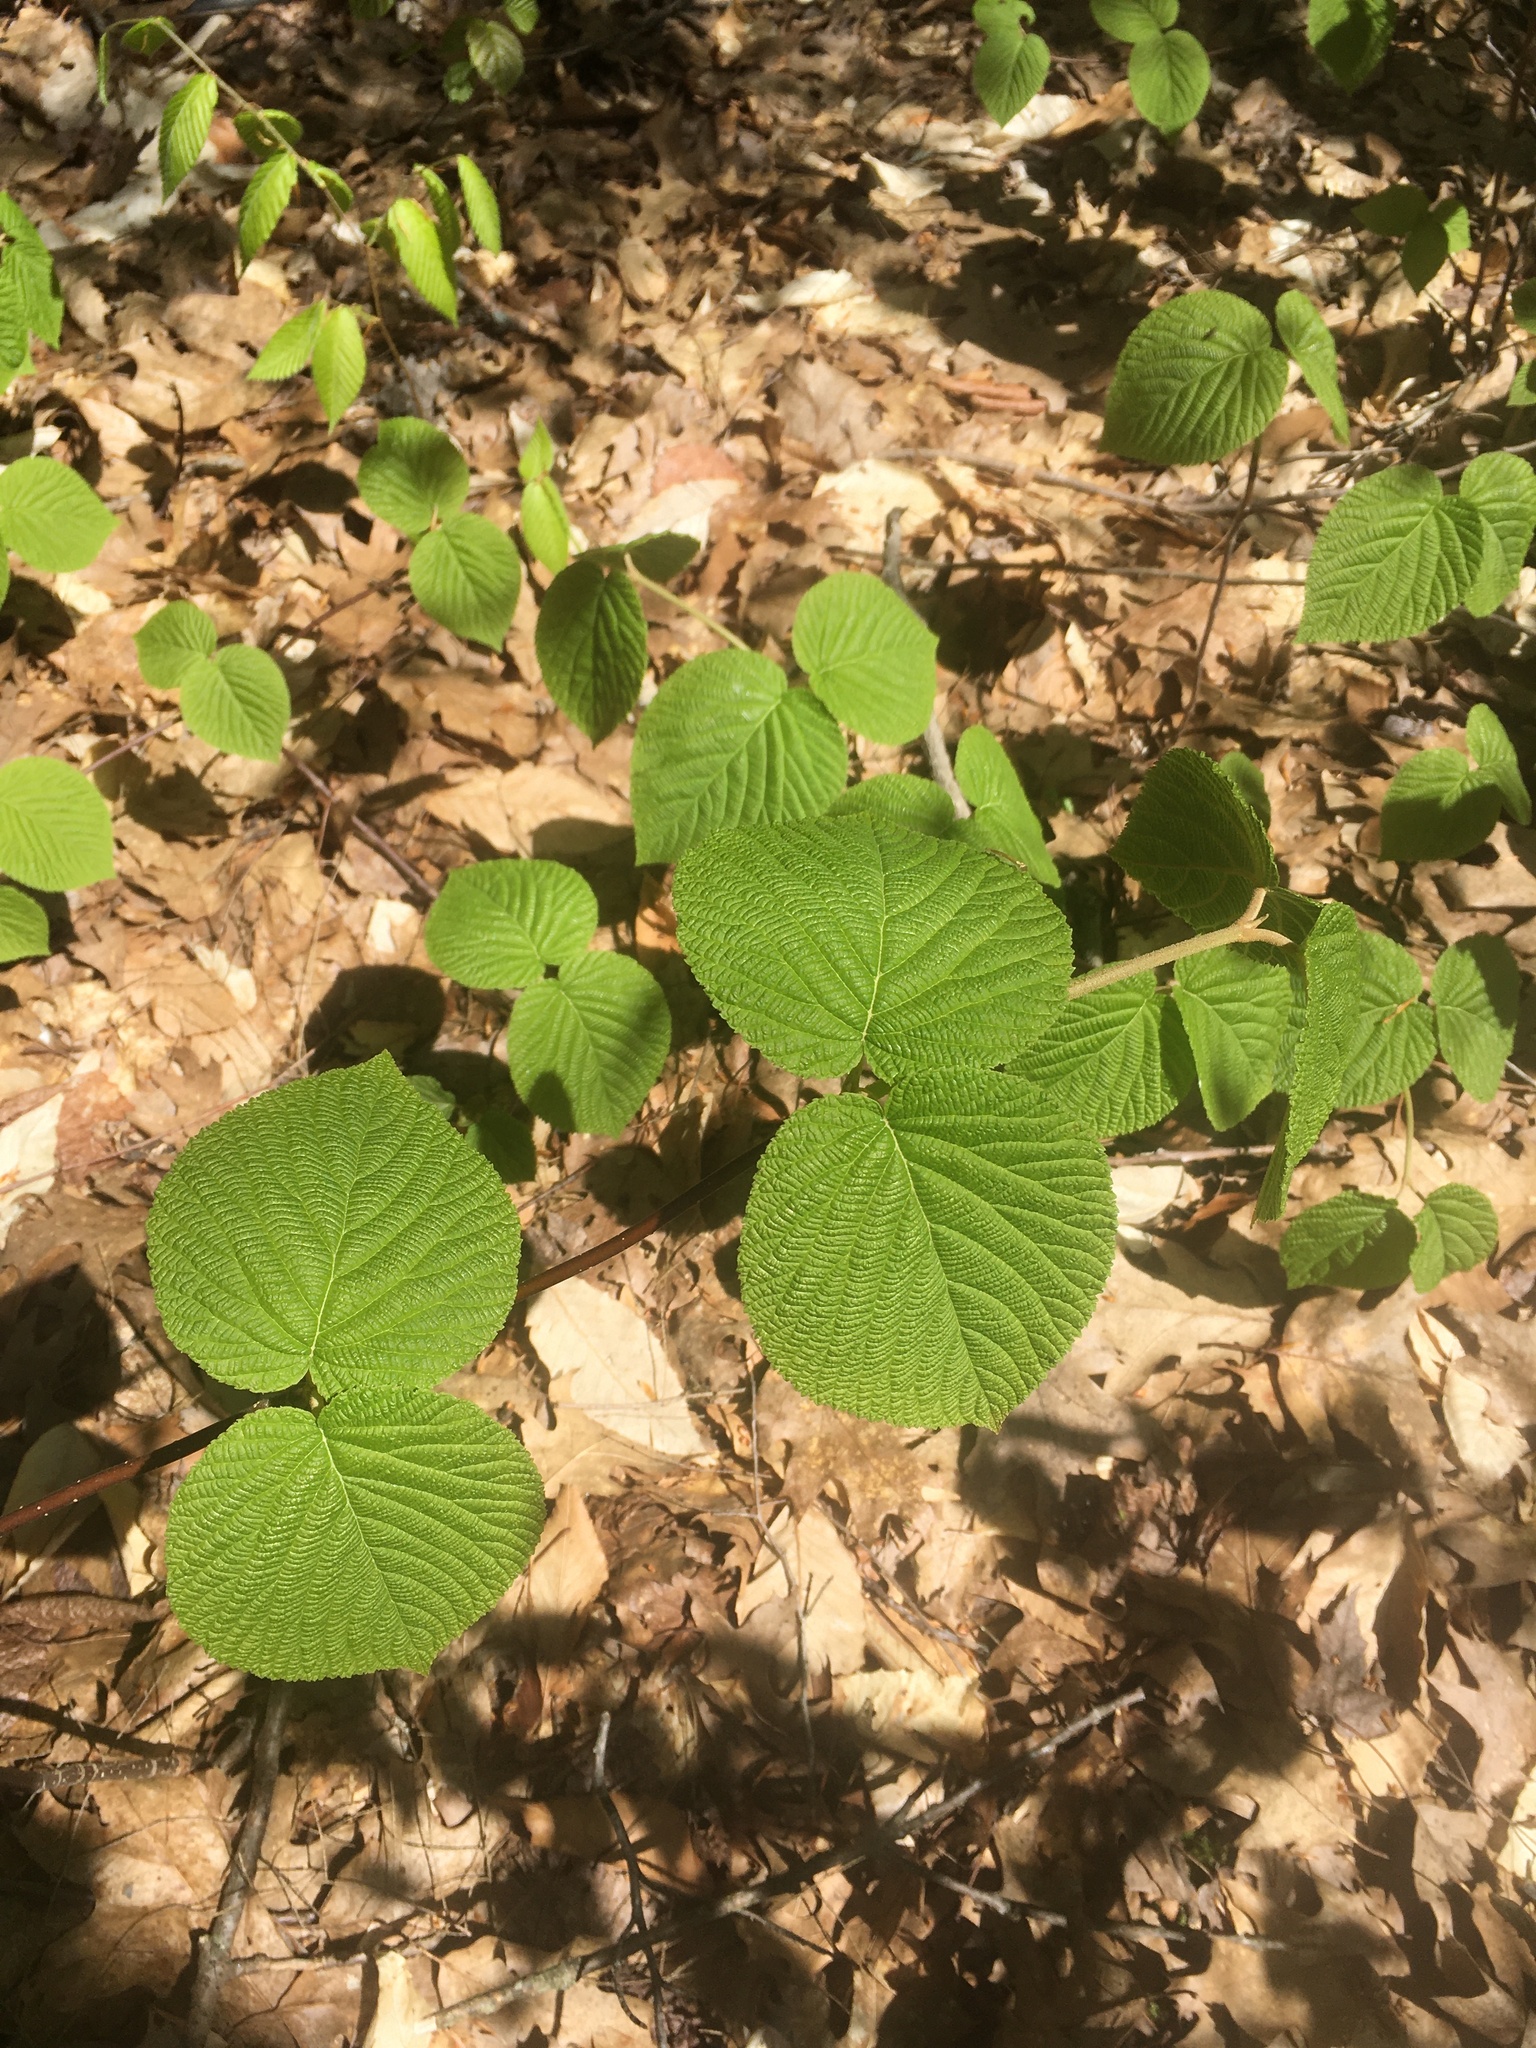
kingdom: Plantae
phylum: Tracheophyta
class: Magnoliopsida
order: Dipsacales
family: Viburnaceae
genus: Viburnum
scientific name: Viburnum lantanoides
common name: Hobblebush
